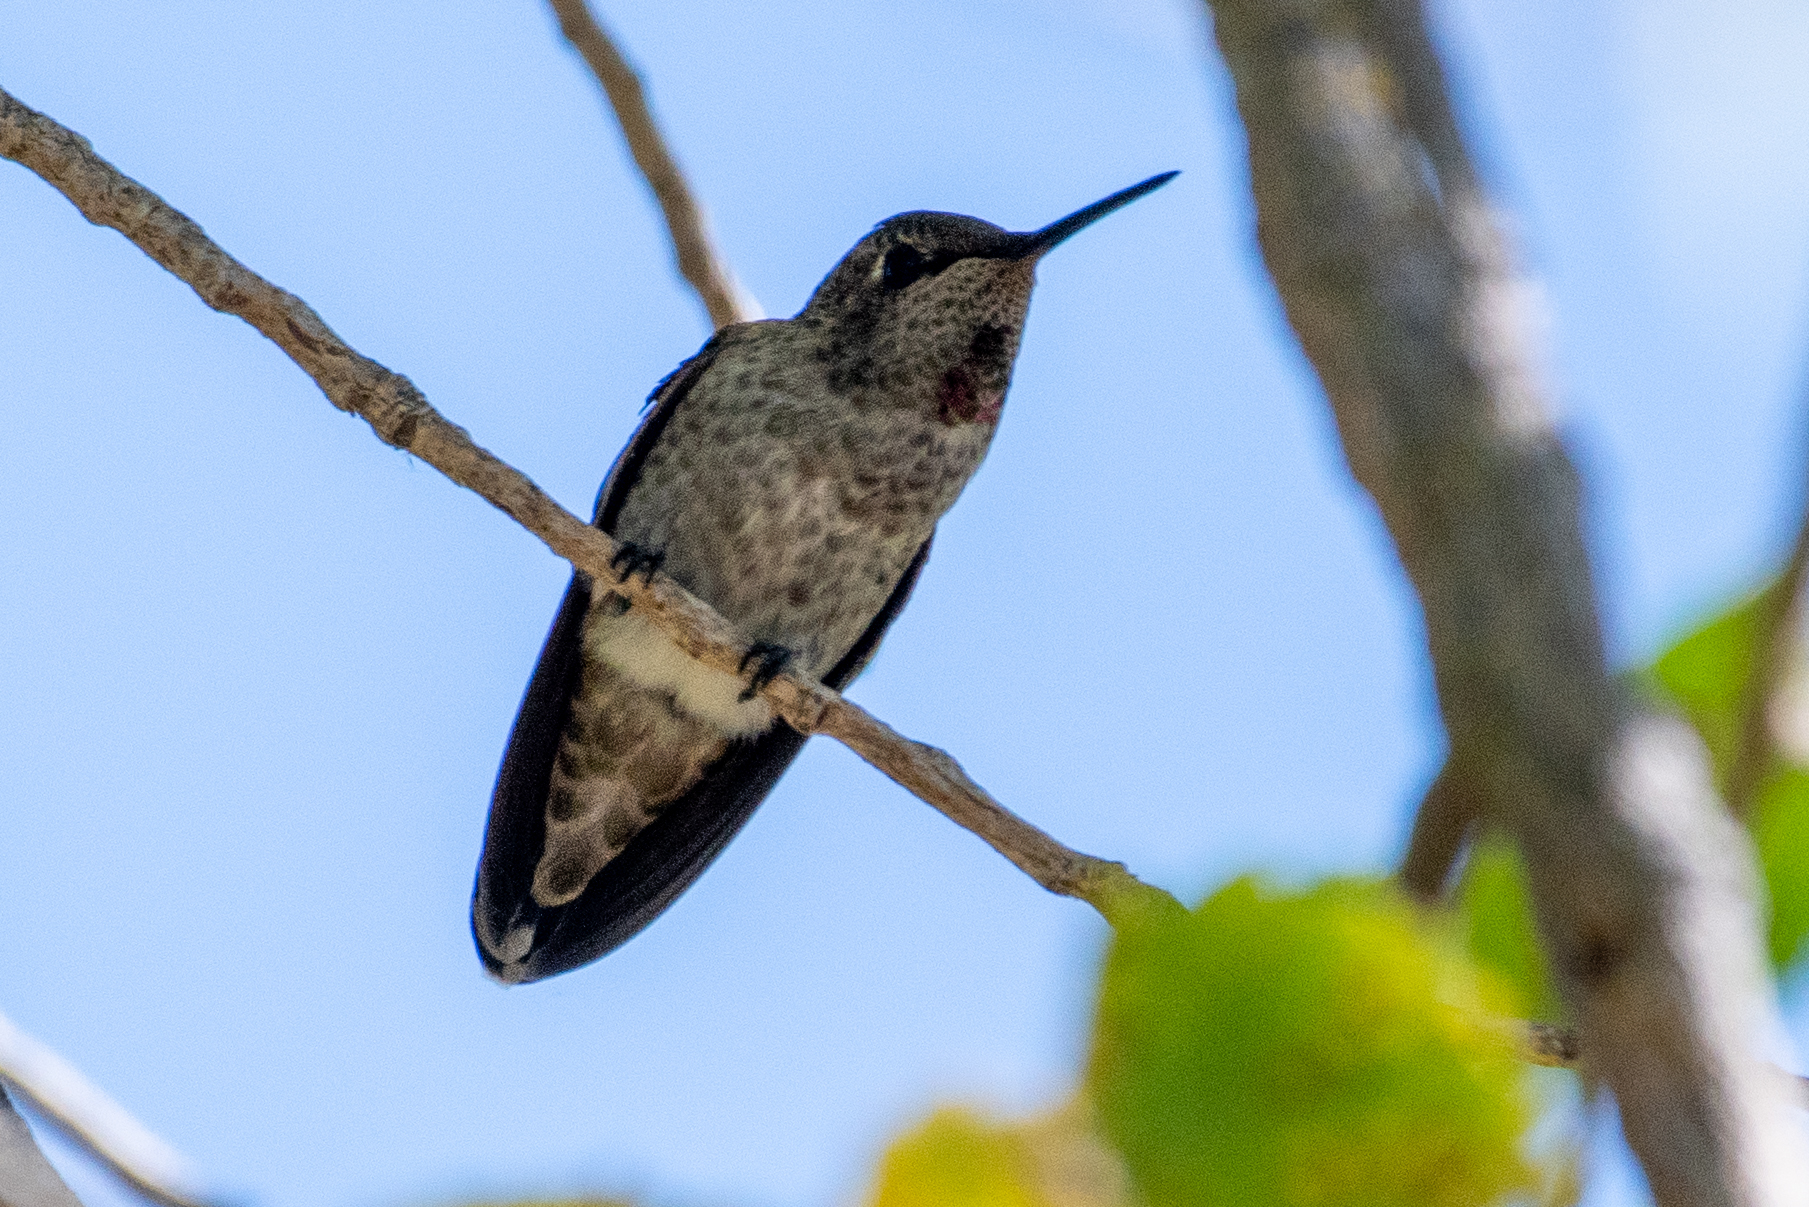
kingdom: Animalia
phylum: Chordata
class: Aves
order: Apodiformes
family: Trochilidae
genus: Calypte
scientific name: Calypte anna
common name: Anna's hummingbird
